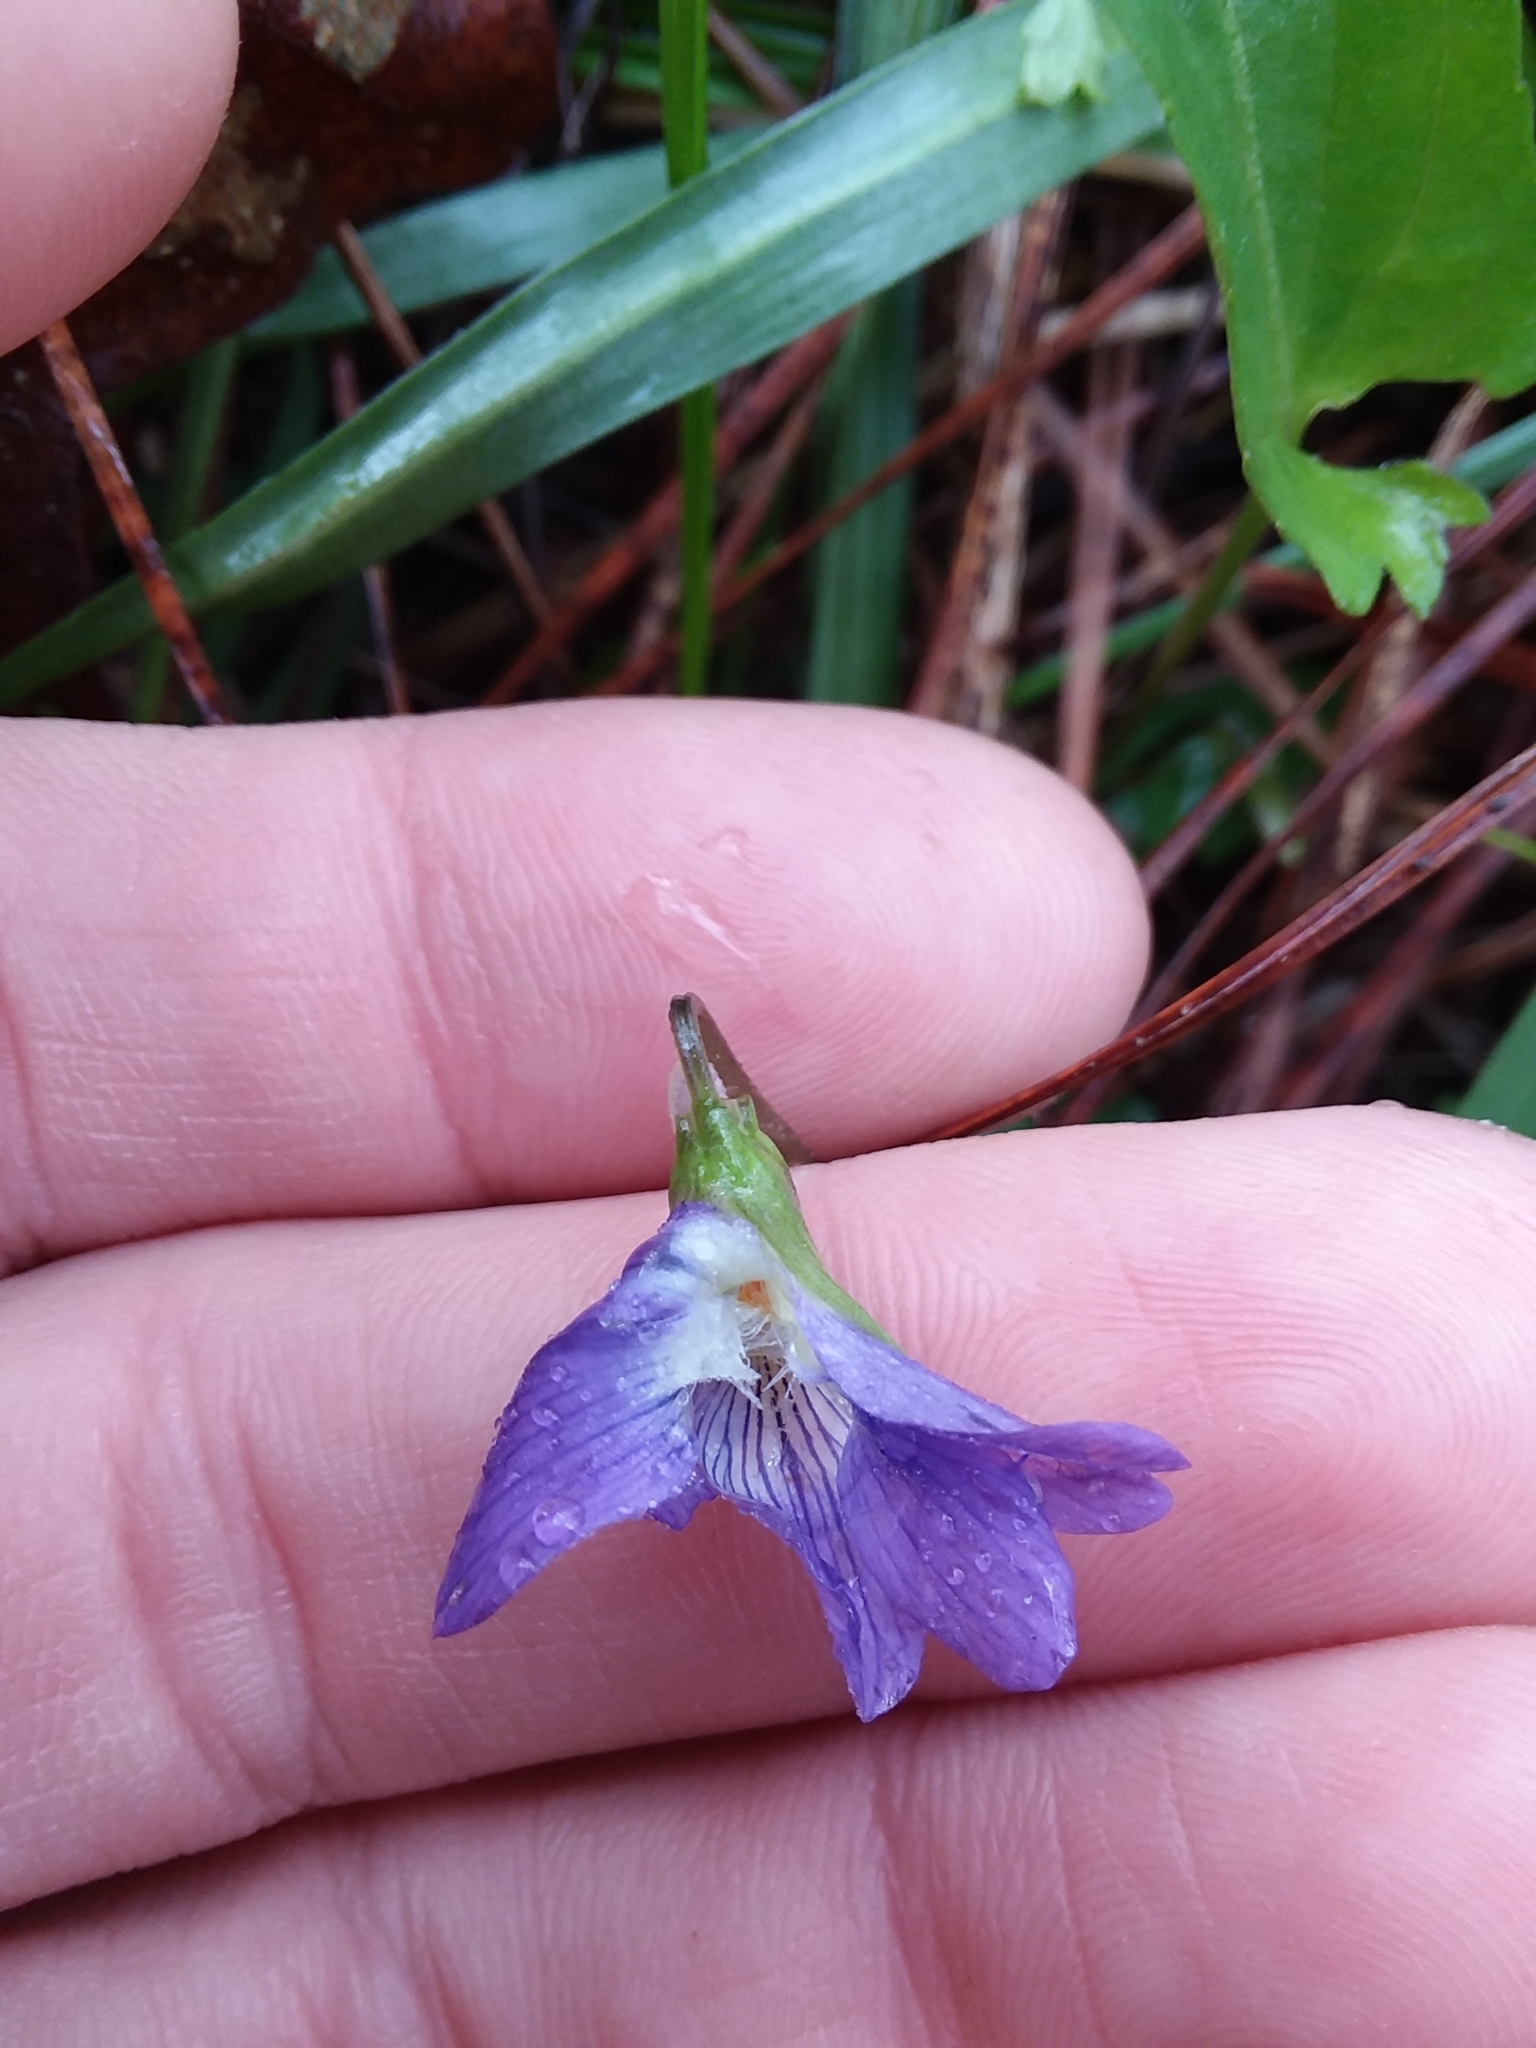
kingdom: Plantae
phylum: Tracheophyta
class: Magnoliopsida
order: Malpighiales
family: Violaceae
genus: Viola
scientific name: Viola sagittata
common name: Arrowhead violet
